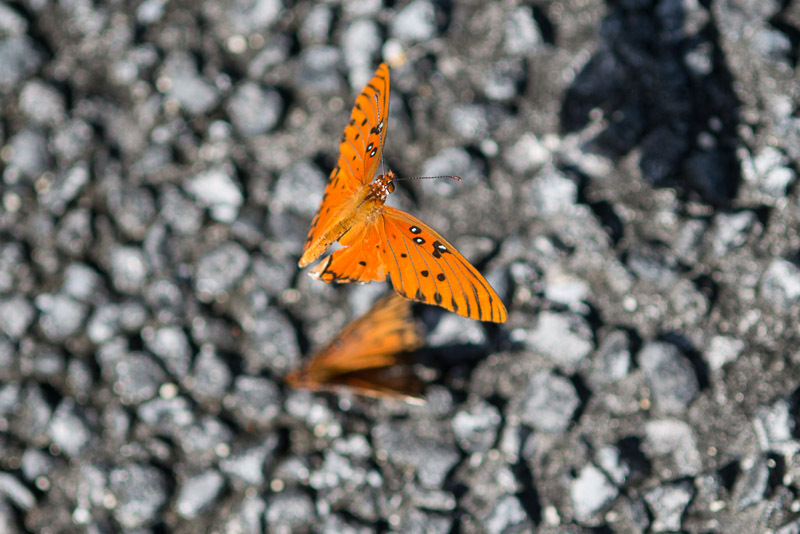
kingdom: Animalia
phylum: Arthropoda
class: Insecta
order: Lepidoptera
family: Nymphalidae
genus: Dione
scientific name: Dione vanillae
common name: Gulf fritillary
